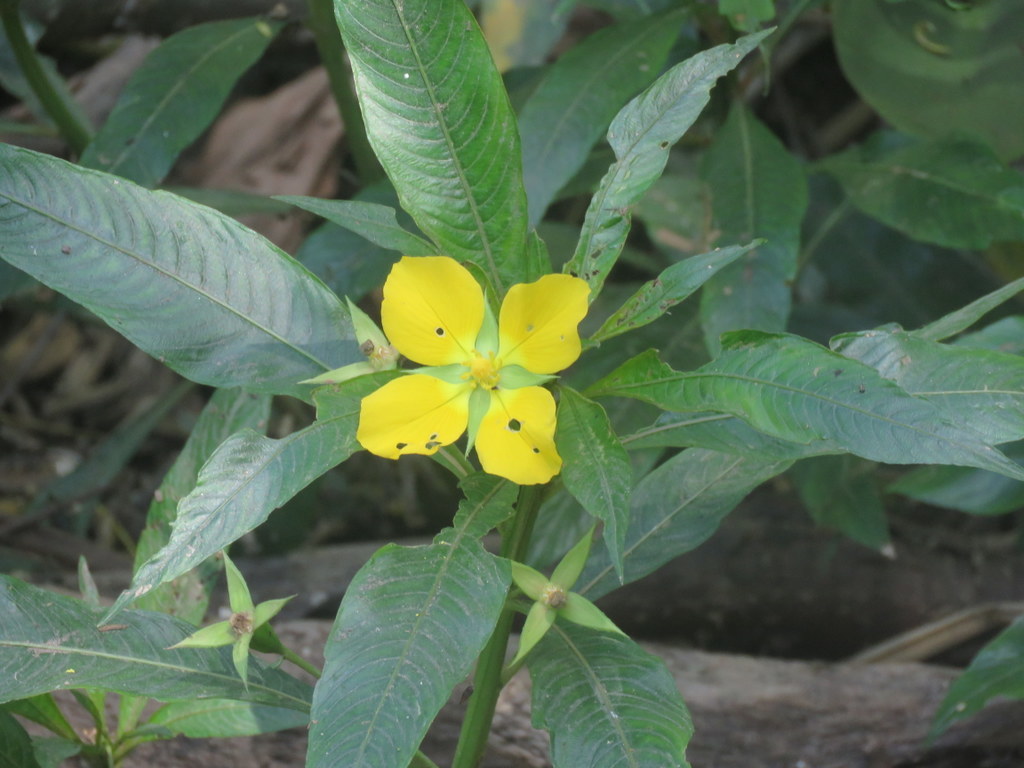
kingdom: Plantae
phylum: Tracheophyta
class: Magnoliopsida
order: Myrtales
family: Onagraceae
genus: Ludwigia
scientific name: Ludwigia elegans
